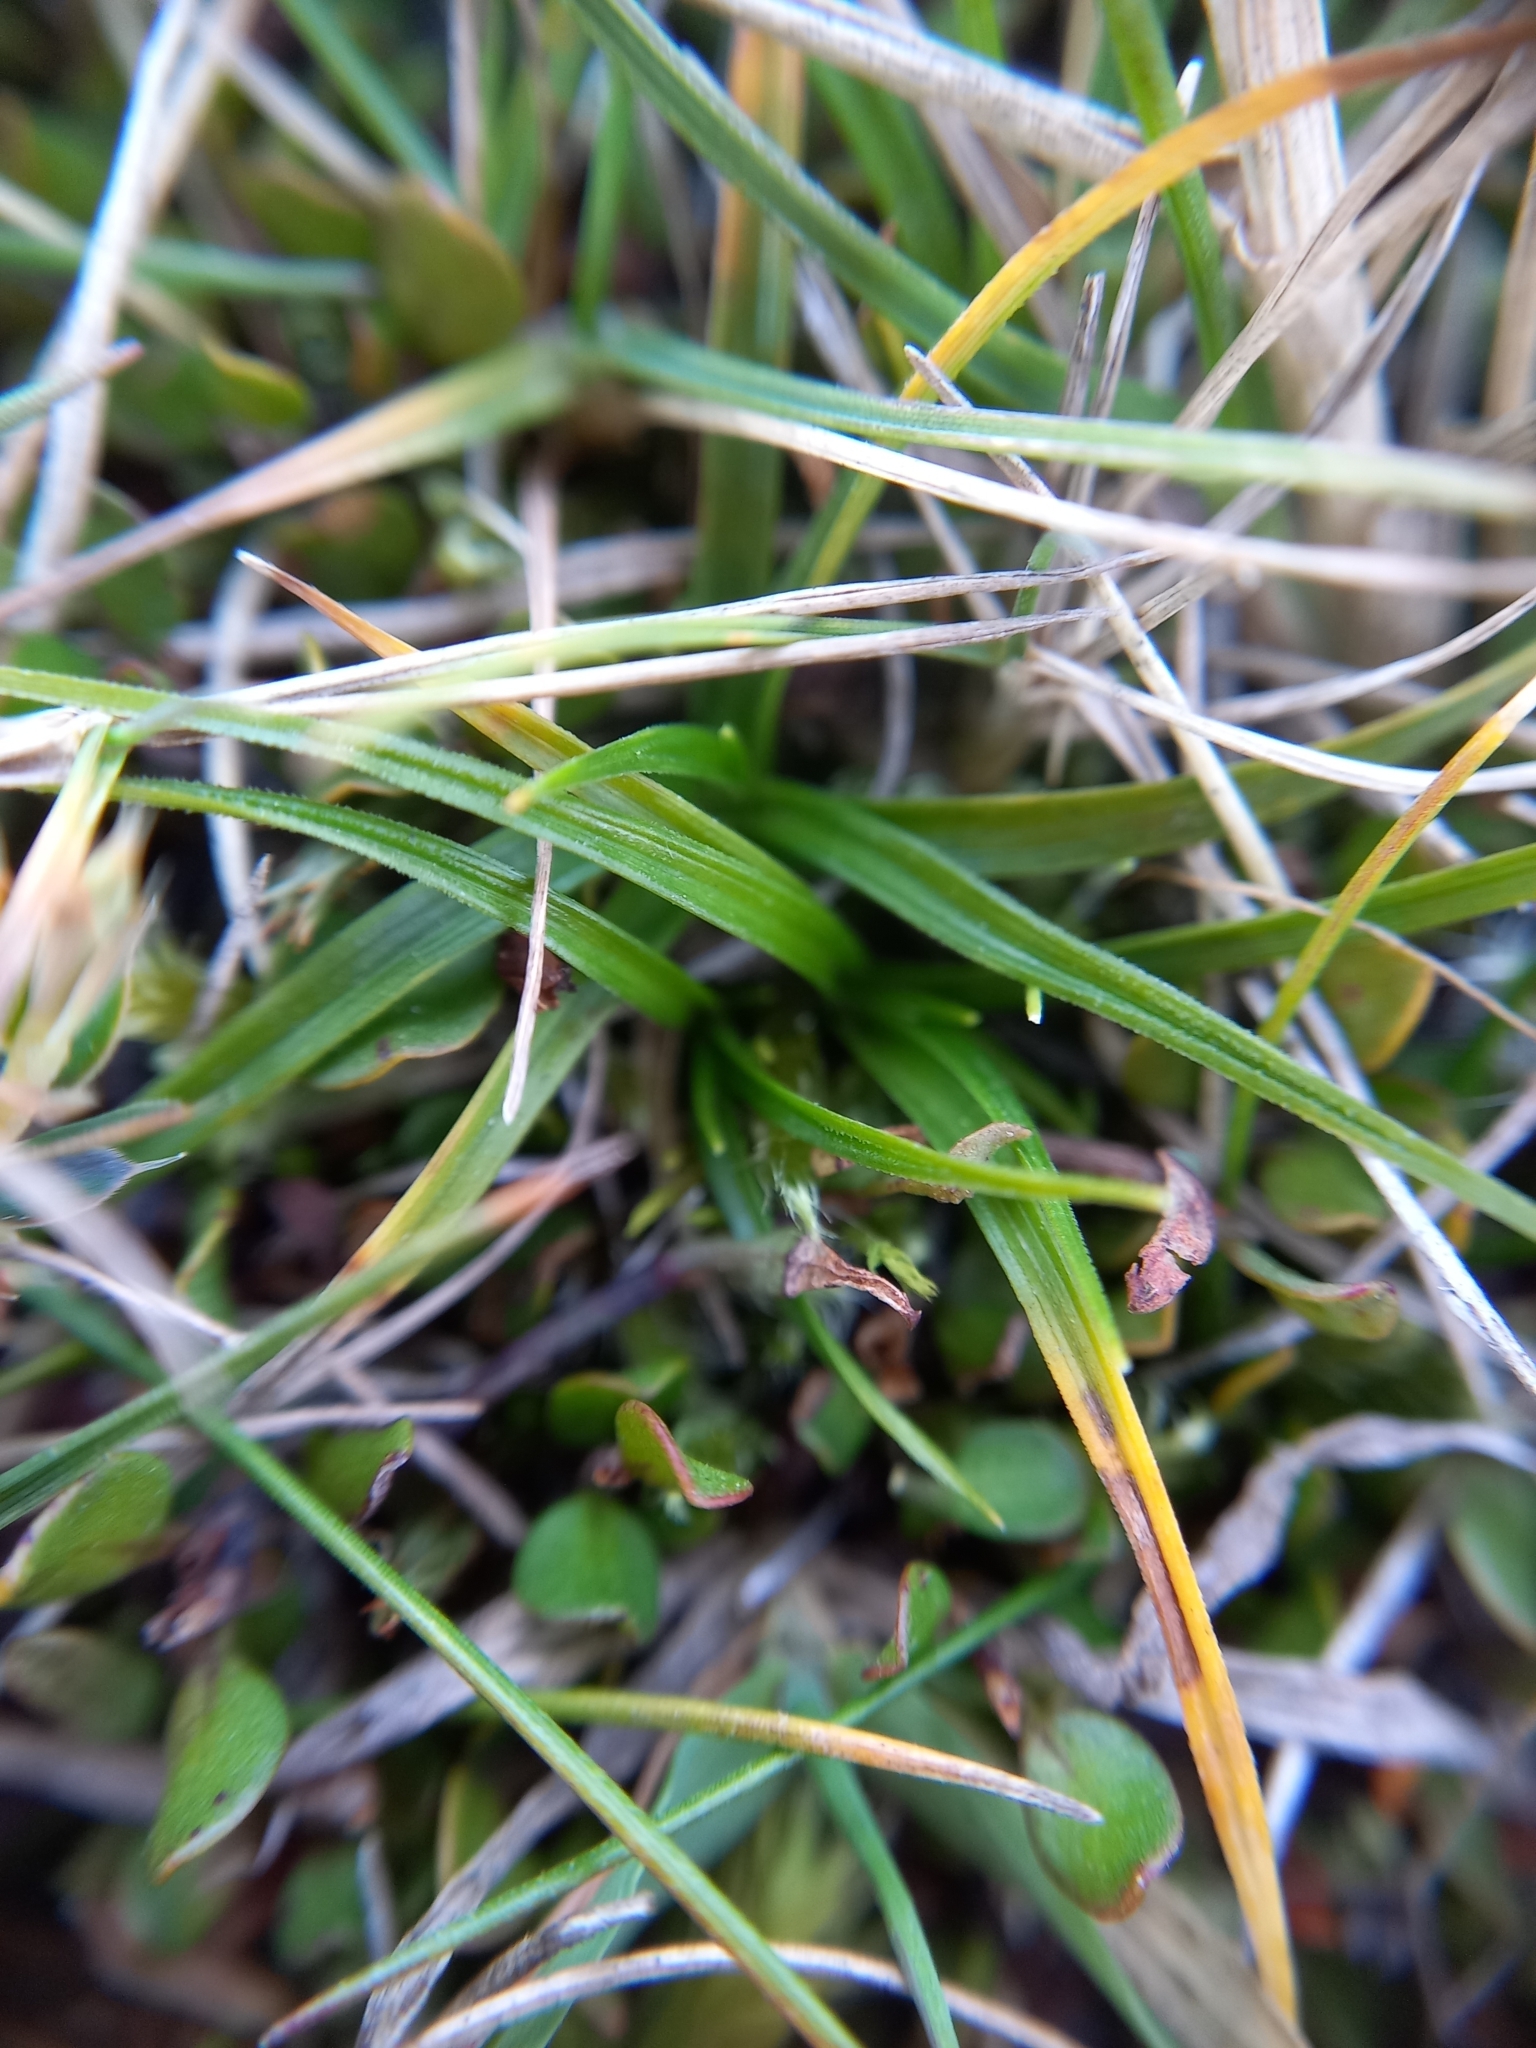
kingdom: Plantae
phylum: Tracheophyta
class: Liliopsida
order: Poales
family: Cyperaceae
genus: Carex
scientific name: Carex breviculmis
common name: Asian shortstem sedge
